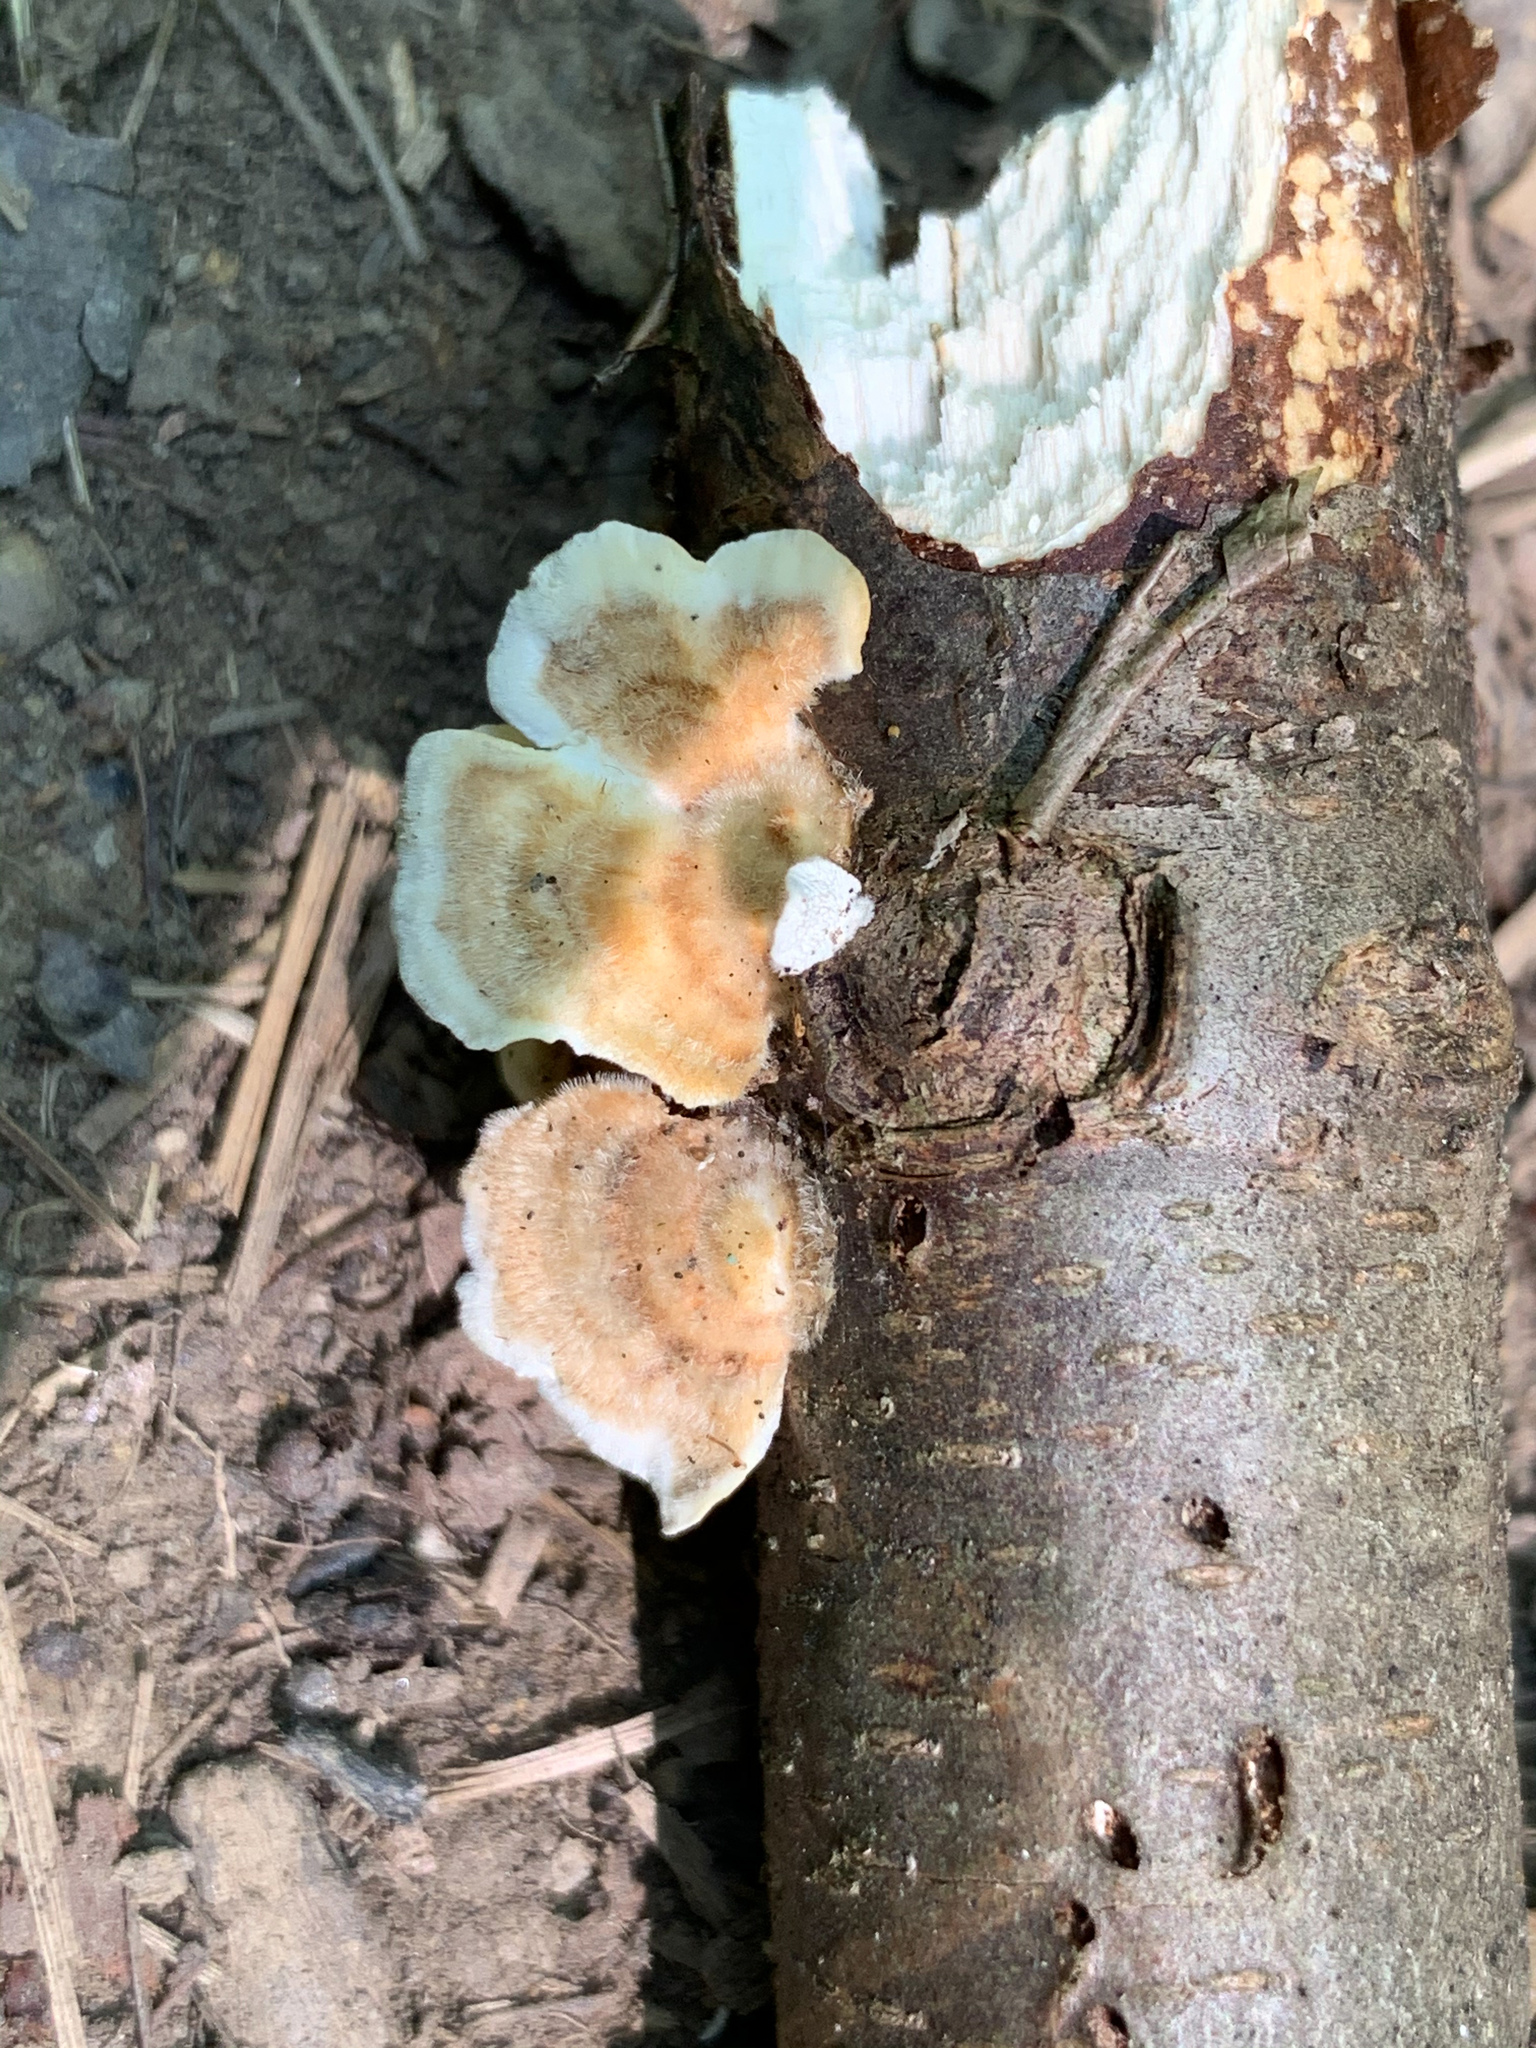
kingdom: Fungi
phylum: Basidiomycota
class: Agaricomycetes
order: Polyporales
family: Polyporaceae
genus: Trametes
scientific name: Trametes versicolor
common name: Turkeytail
